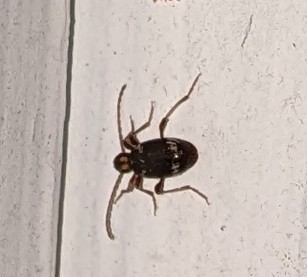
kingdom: Animalia
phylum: Arthropoda
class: Insecta
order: Coleoptera
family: Ptinidae
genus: Ptinus
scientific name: Ptinus fur
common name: White-marked spider beetle
